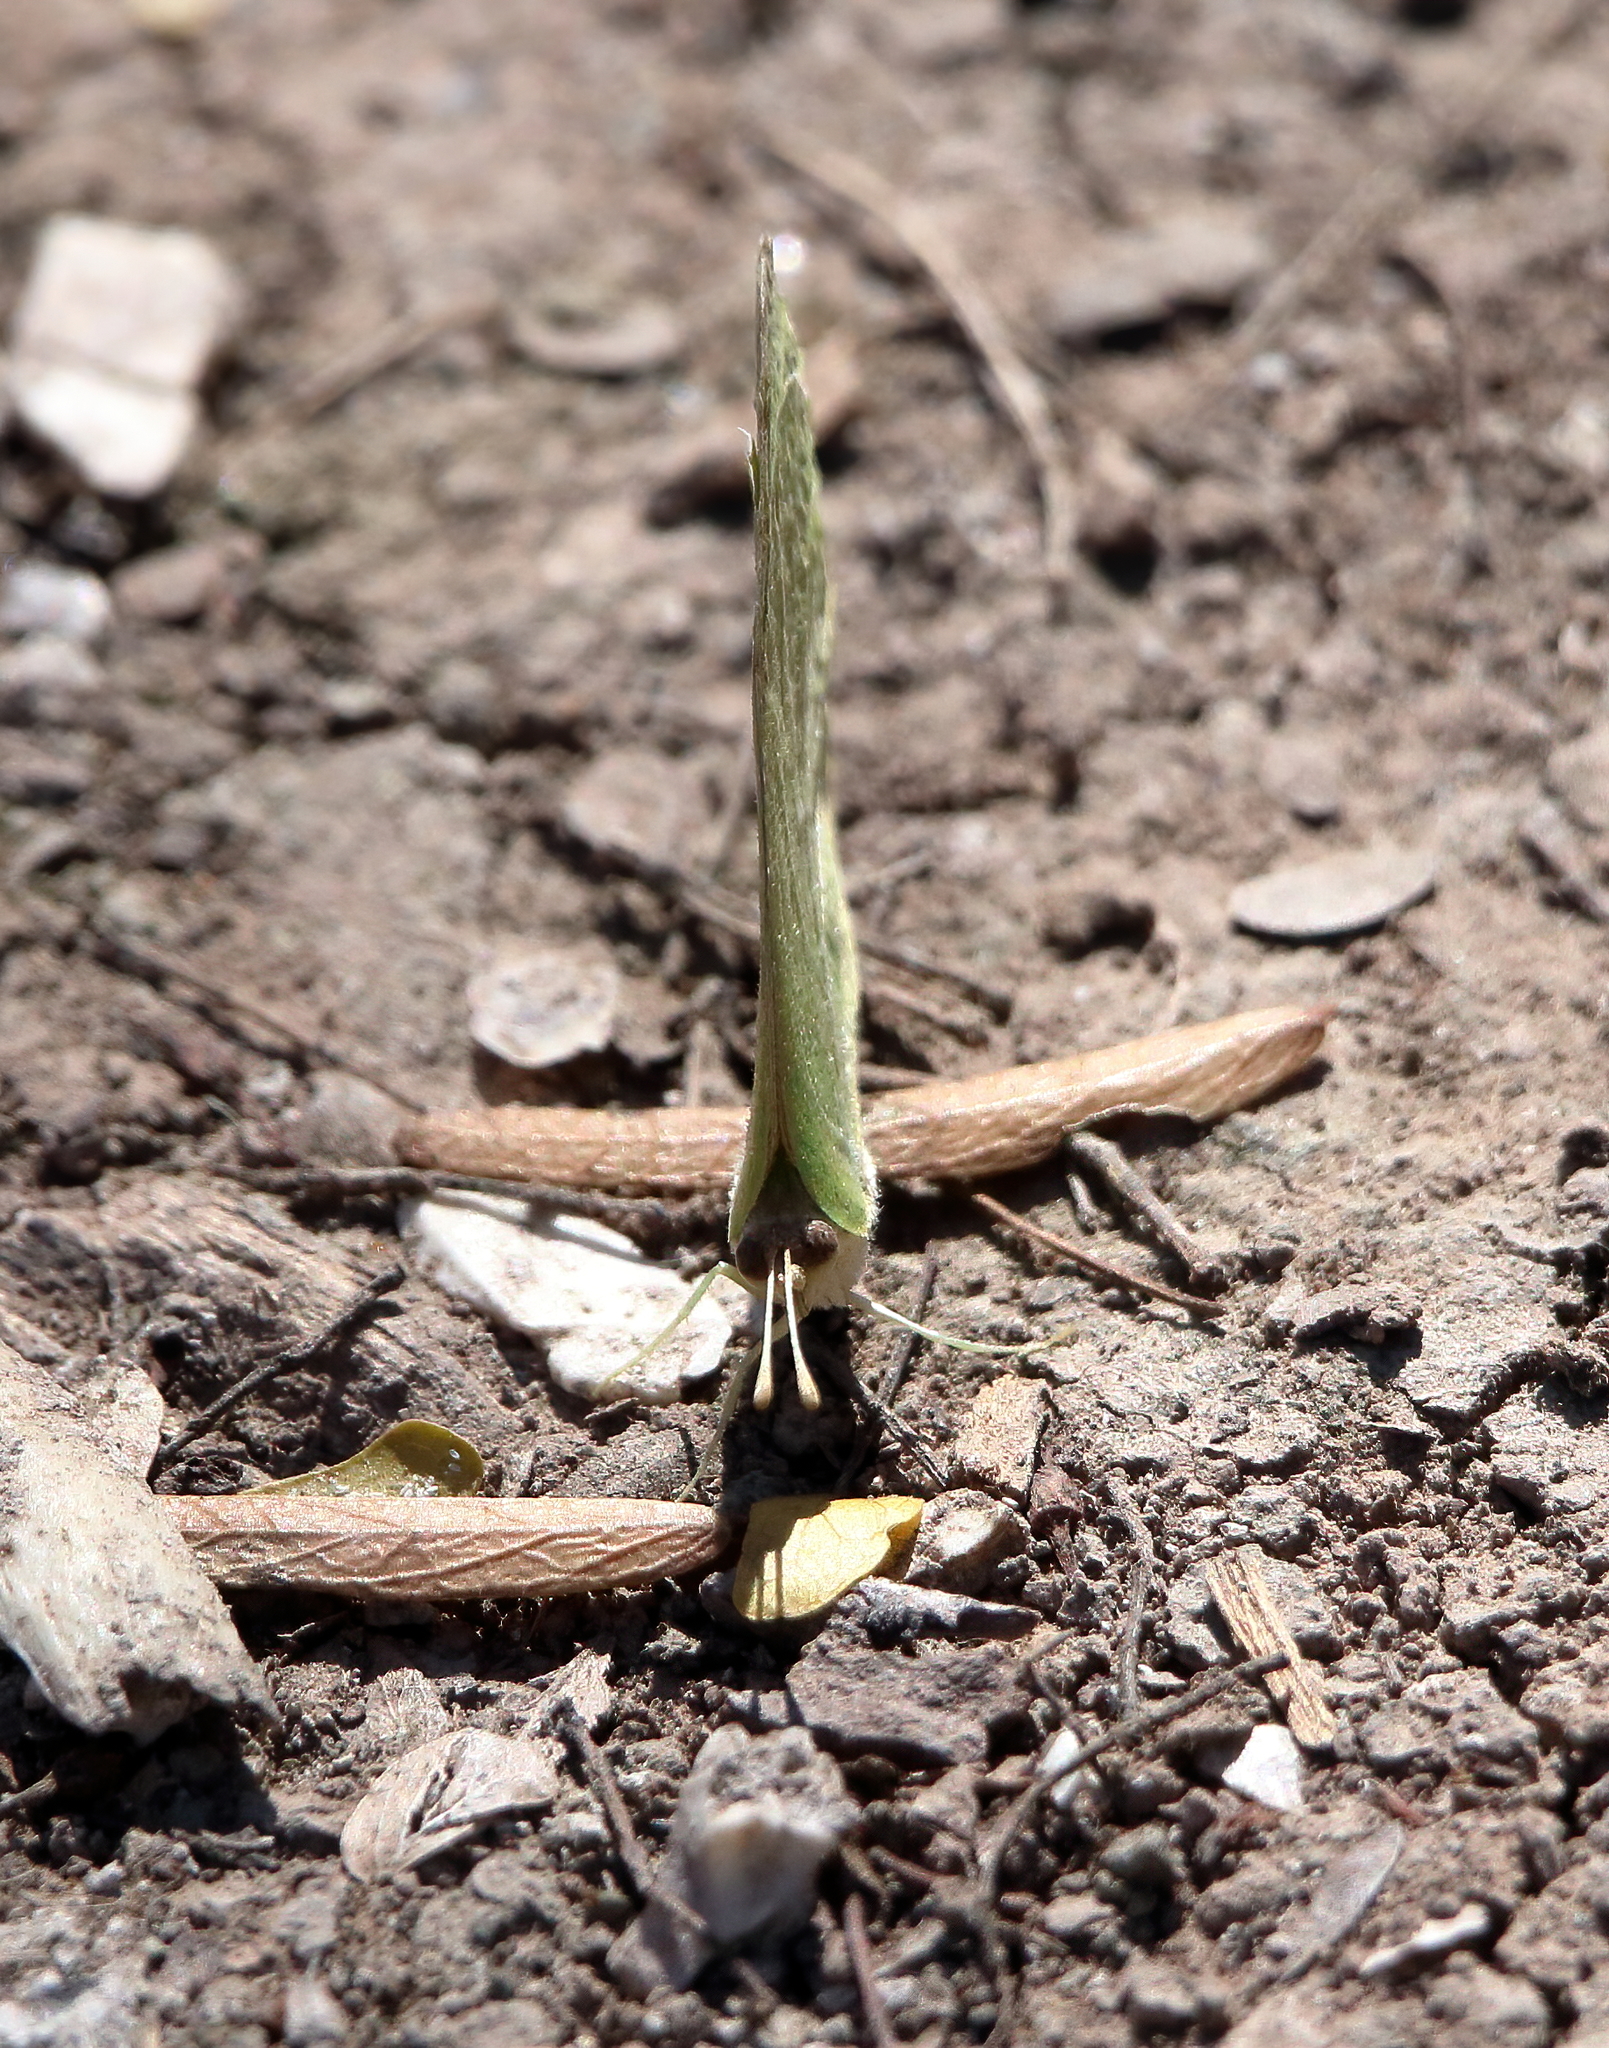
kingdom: Animalia
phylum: Arthropoda
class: Insecta
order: Lepidoptera
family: Pieridae
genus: Kricogonia
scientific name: Kricogonia lyside
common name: Guayacan sulphur,
